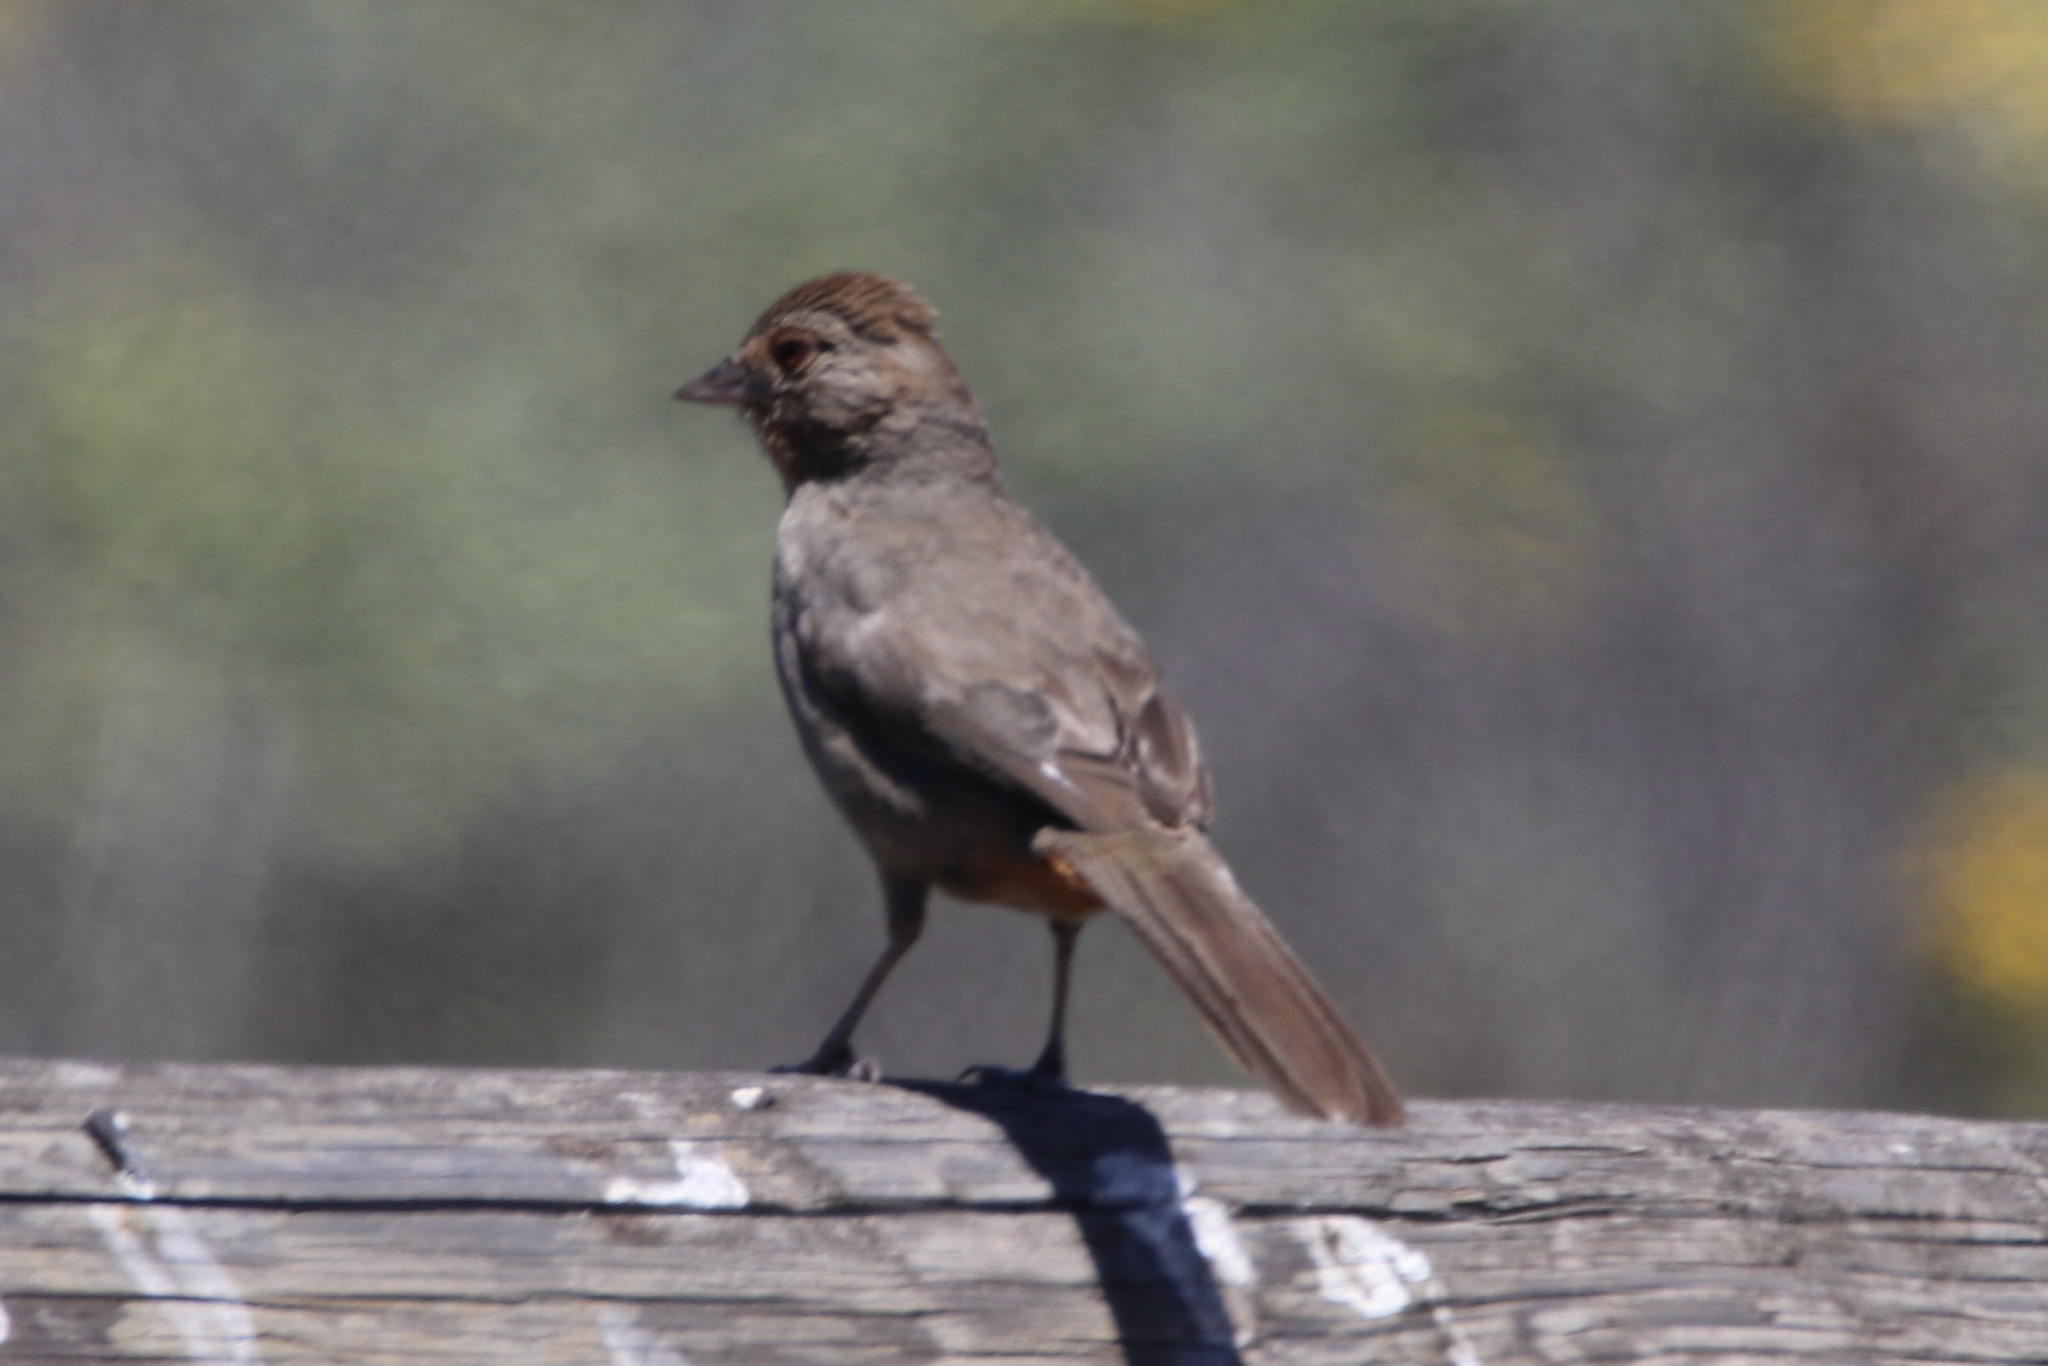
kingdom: Animalia
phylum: Chordata
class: Aves
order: Passeriformes
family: Passerellidae
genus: Melozone
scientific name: Melozone crissalis
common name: California towhee
